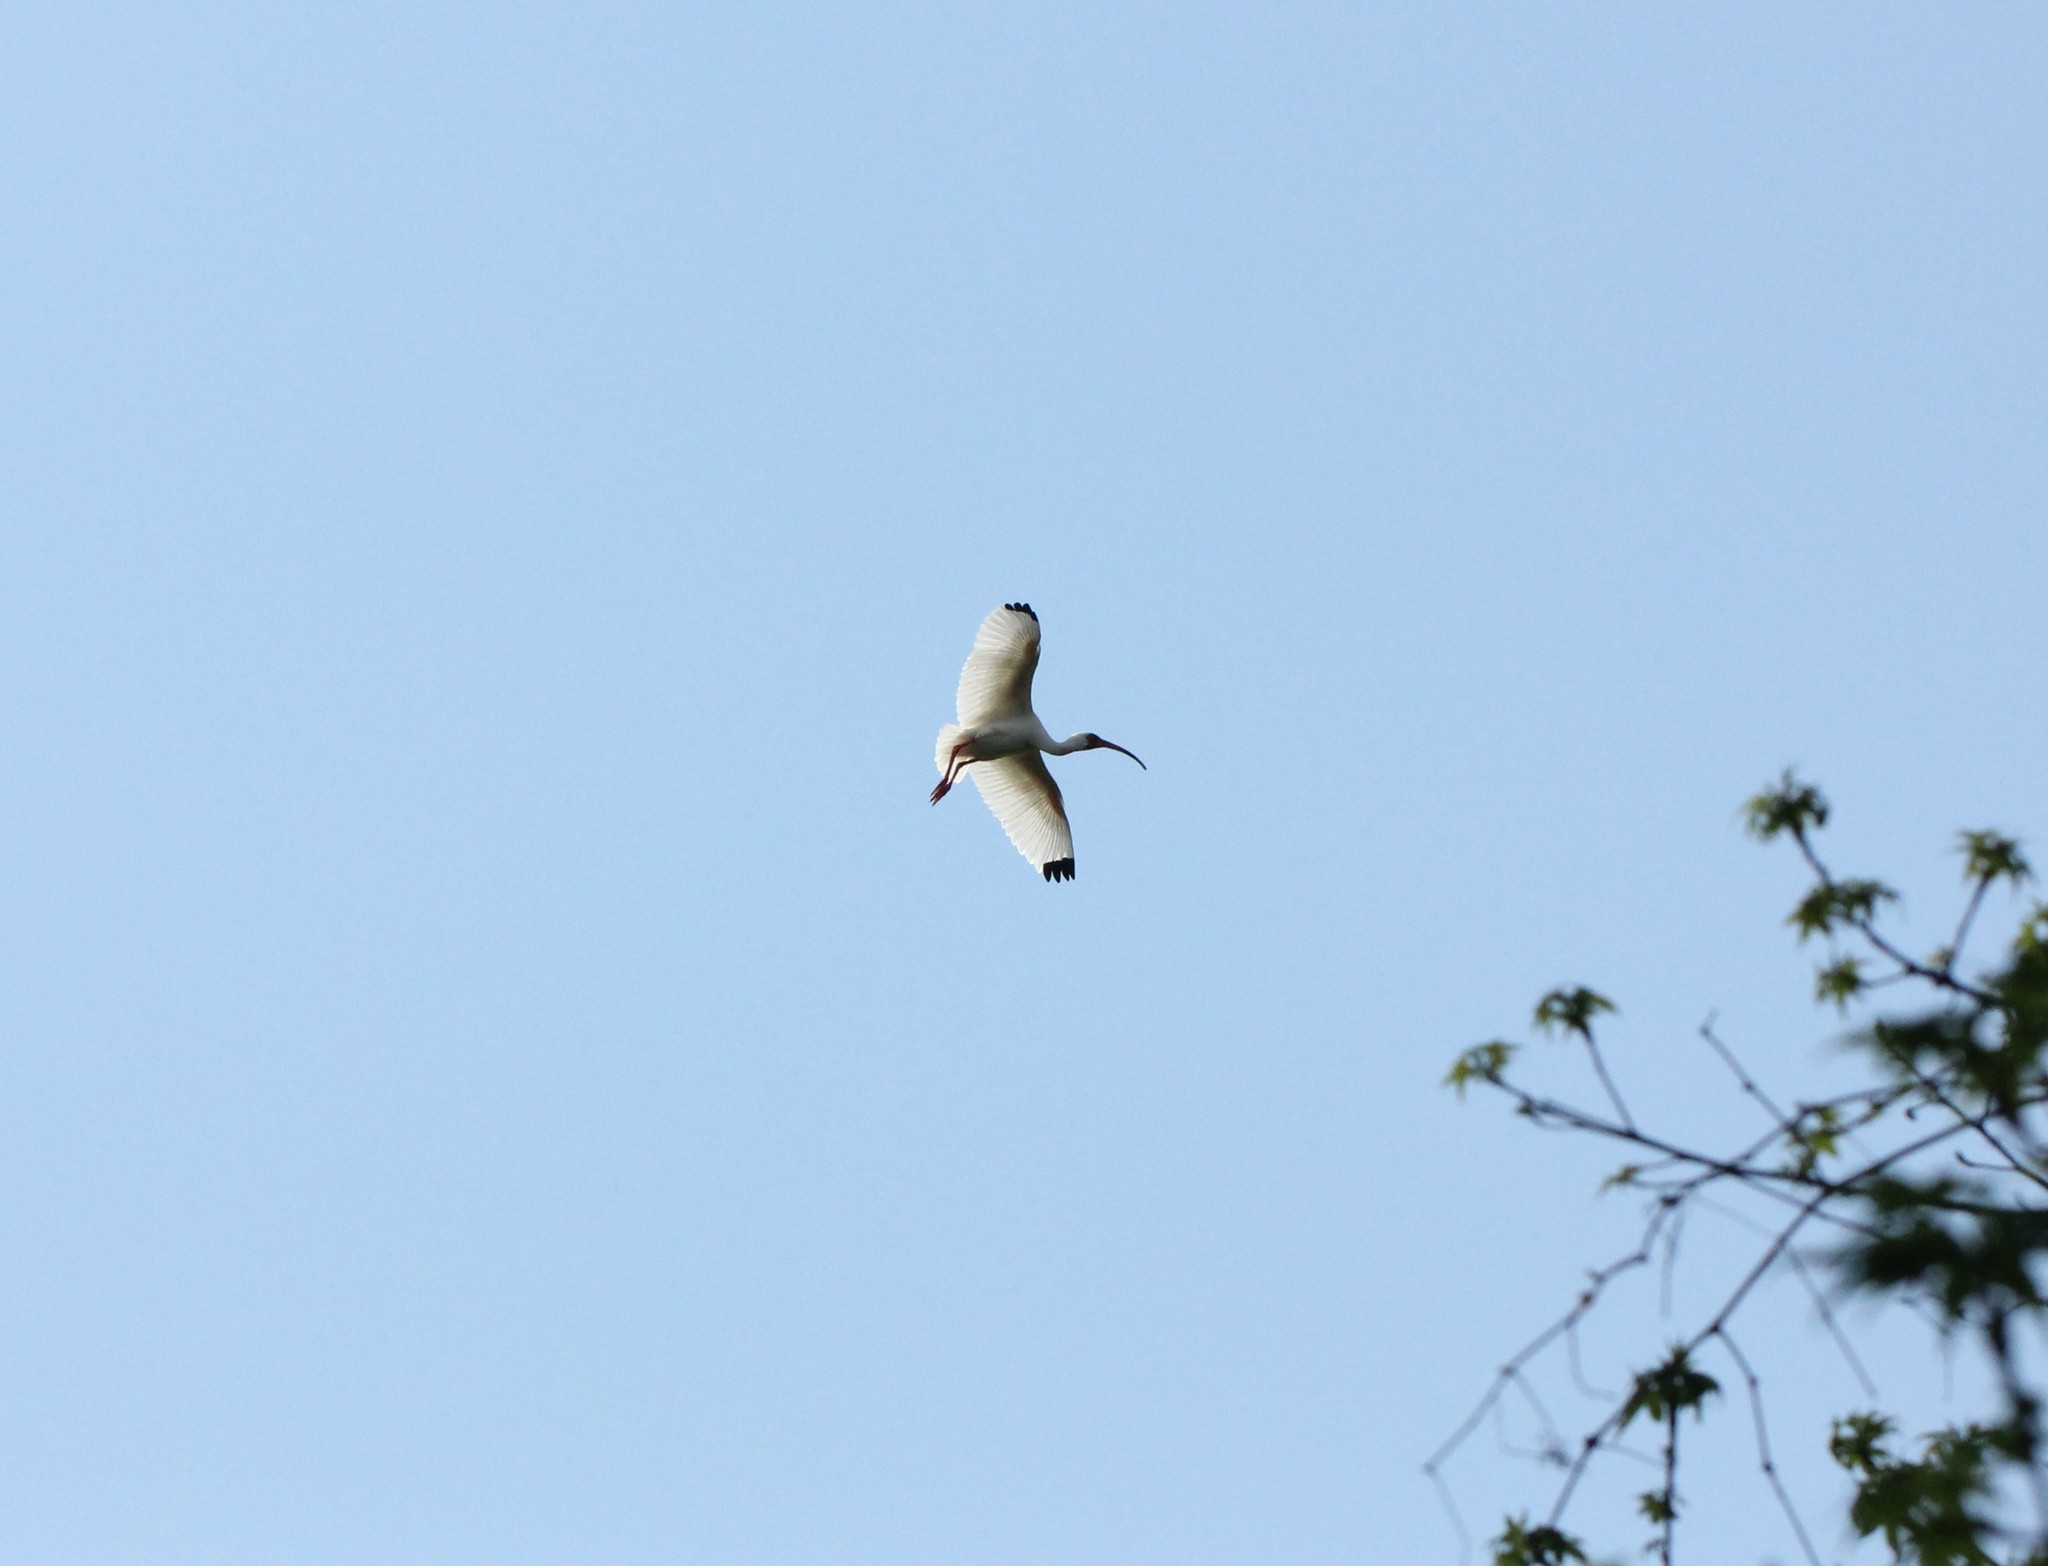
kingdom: Animalia
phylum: Chordata
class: Aves
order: Pelecaniformes
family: Threskiornithidae
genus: Eudocimus
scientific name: Eudocimus albus
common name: White ibis
